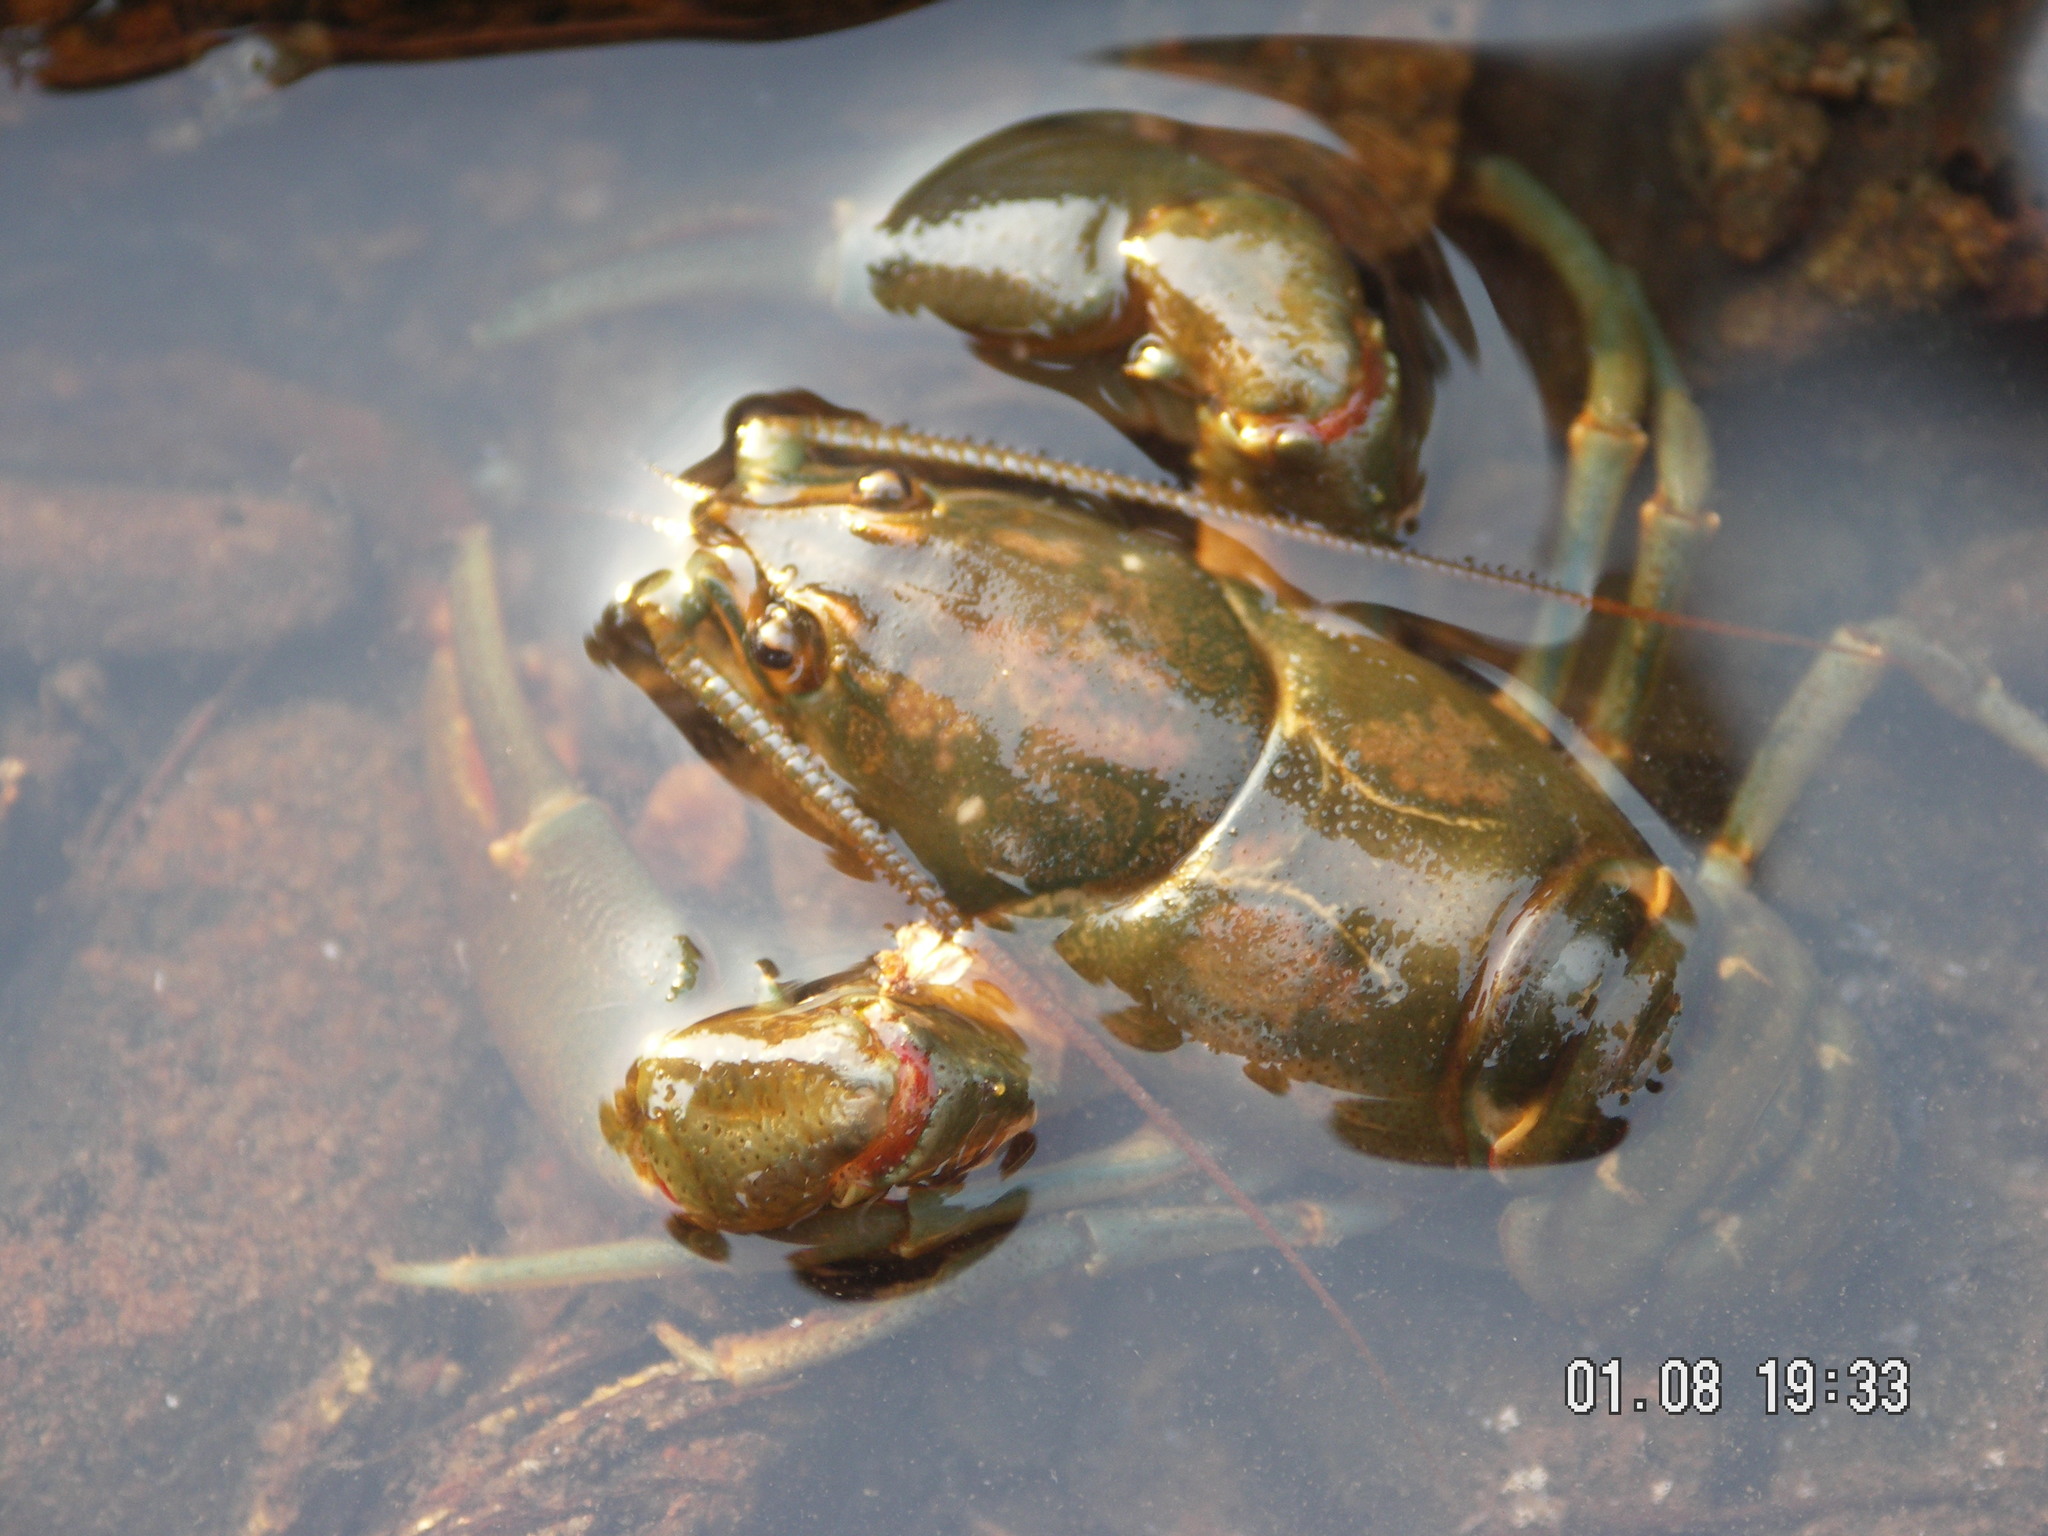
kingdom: Animalia
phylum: Arthropoda
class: Malacostraca
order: Decapoda
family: Astacidae
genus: Astacus
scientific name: Astacus astacus
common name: Noble crayfish
